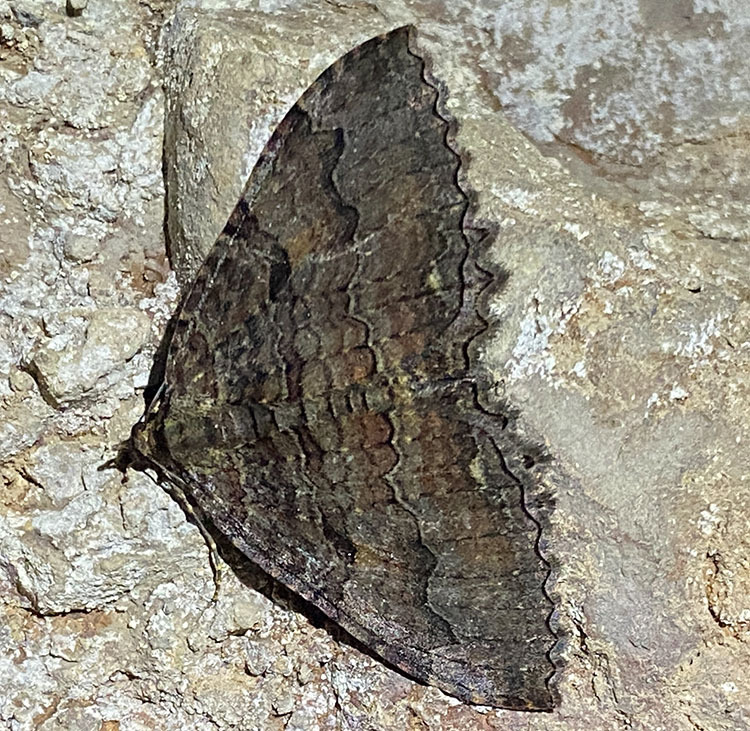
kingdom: Animalia
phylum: Arthropoda
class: Insecta
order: Lepidoptera
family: Geometridae
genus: Triphosa
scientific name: Triphosa haesitata
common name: Tissue moth
